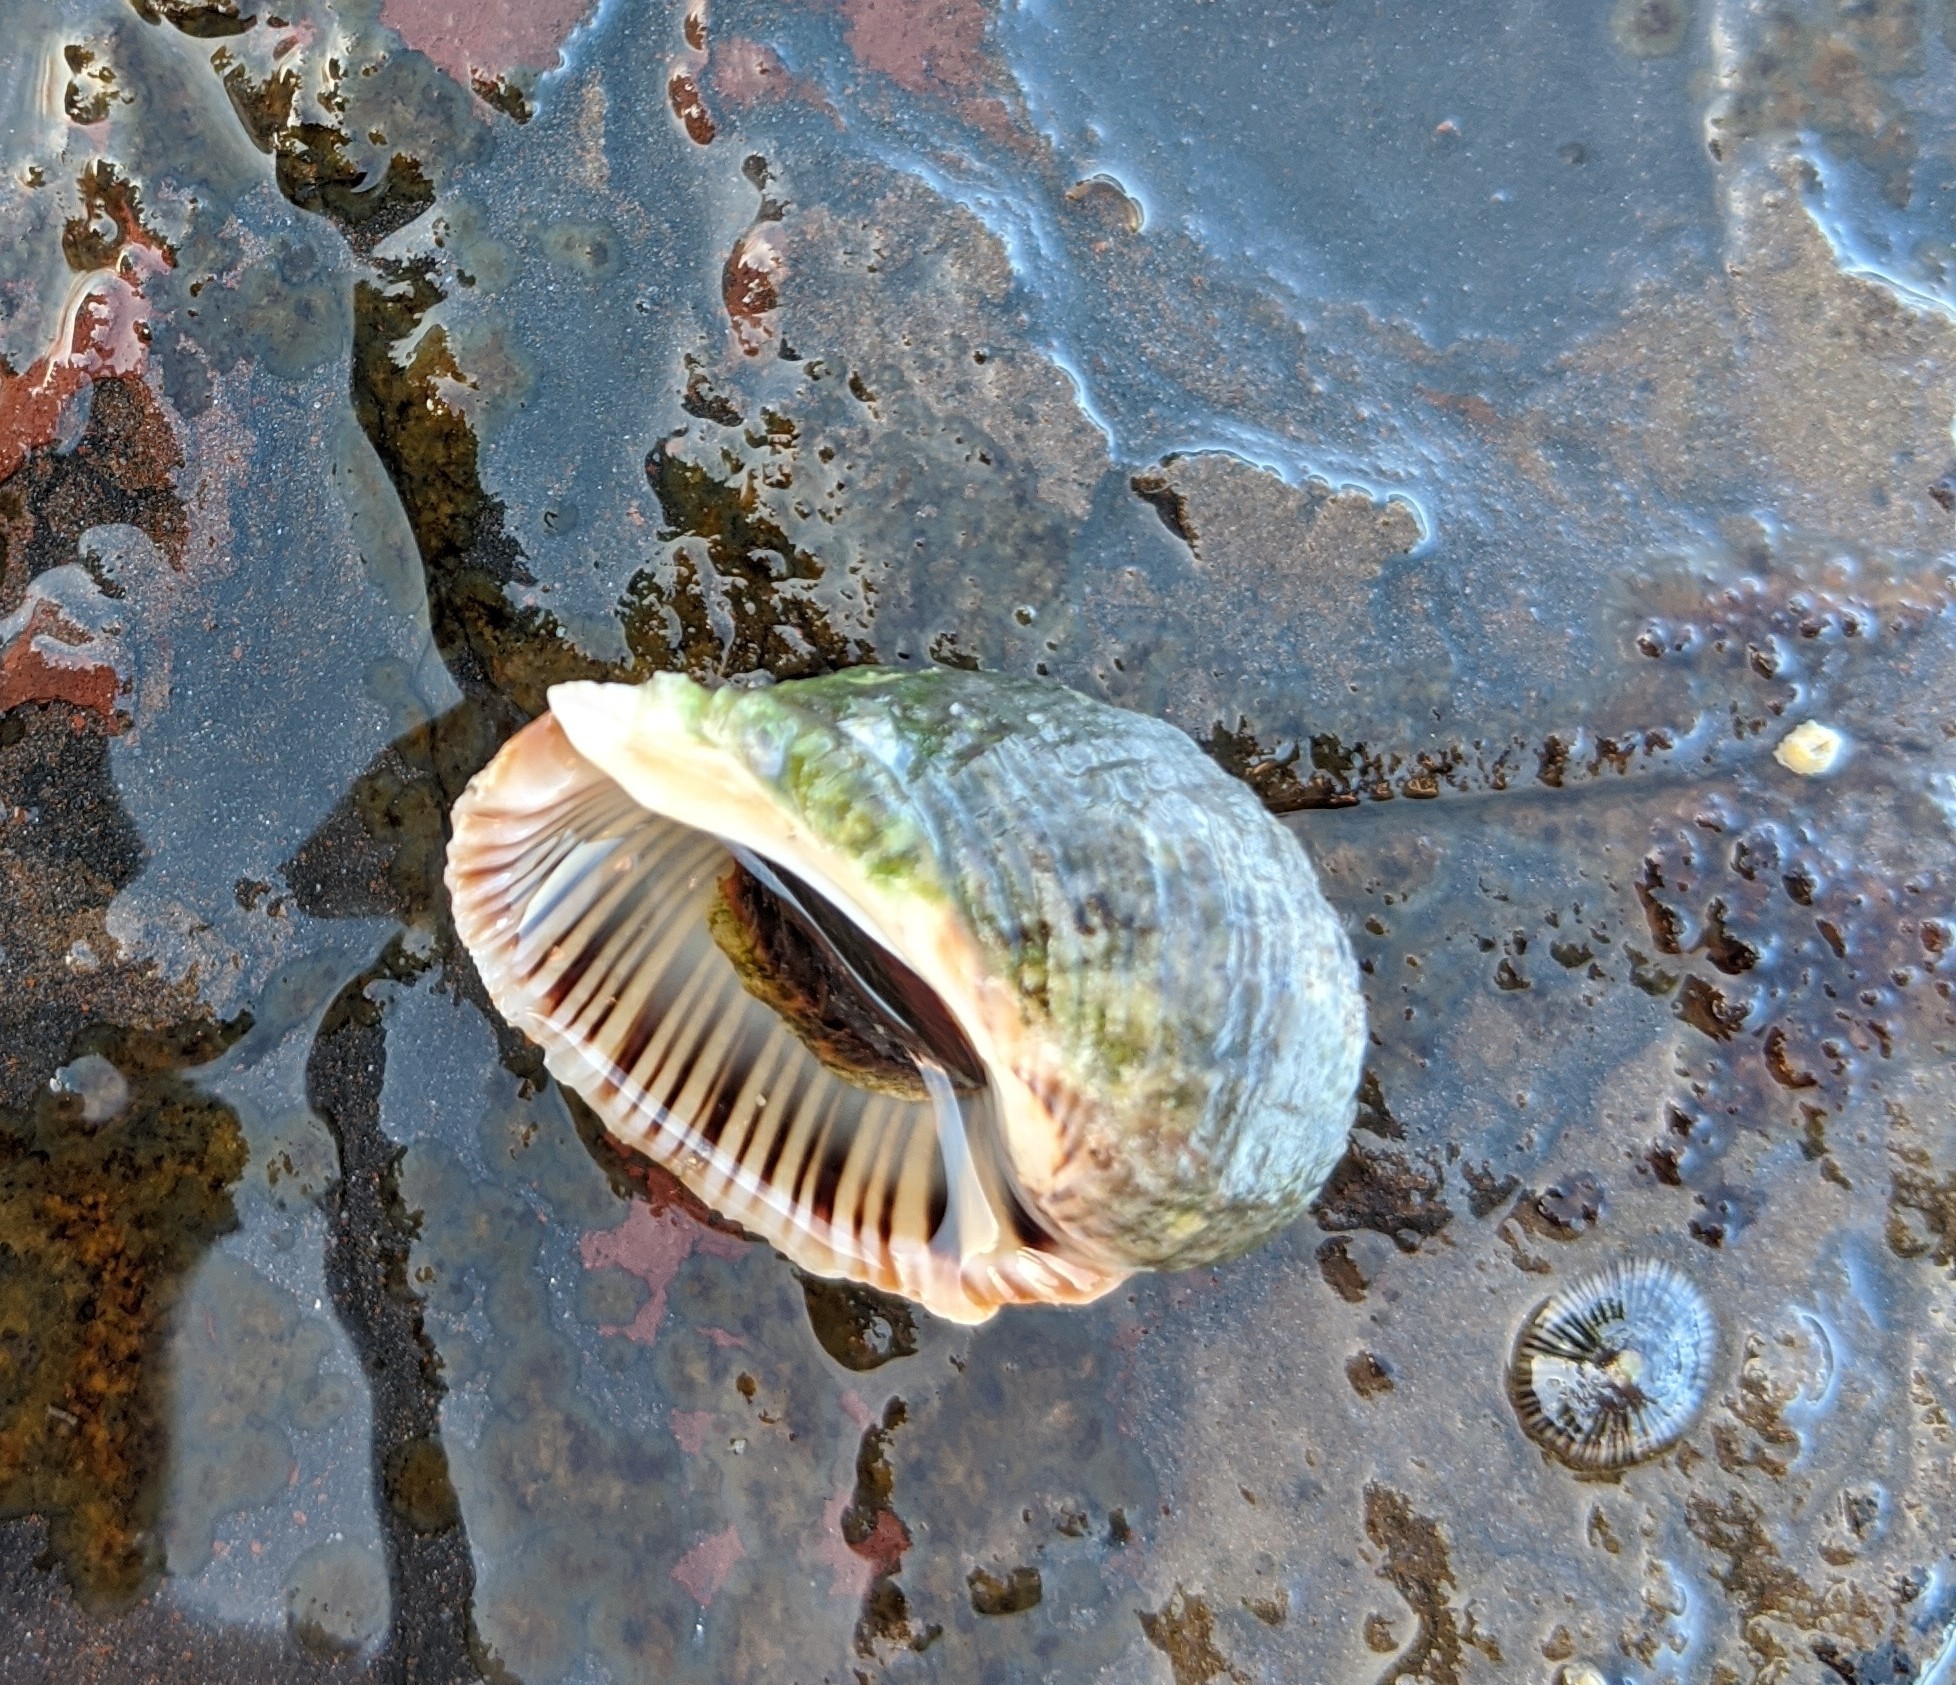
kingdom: Animalia
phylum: Mollusca
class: Gastropoda
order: Neogastropoda
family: Muricidae
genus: Dicathais
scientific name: Dicathais orbita
